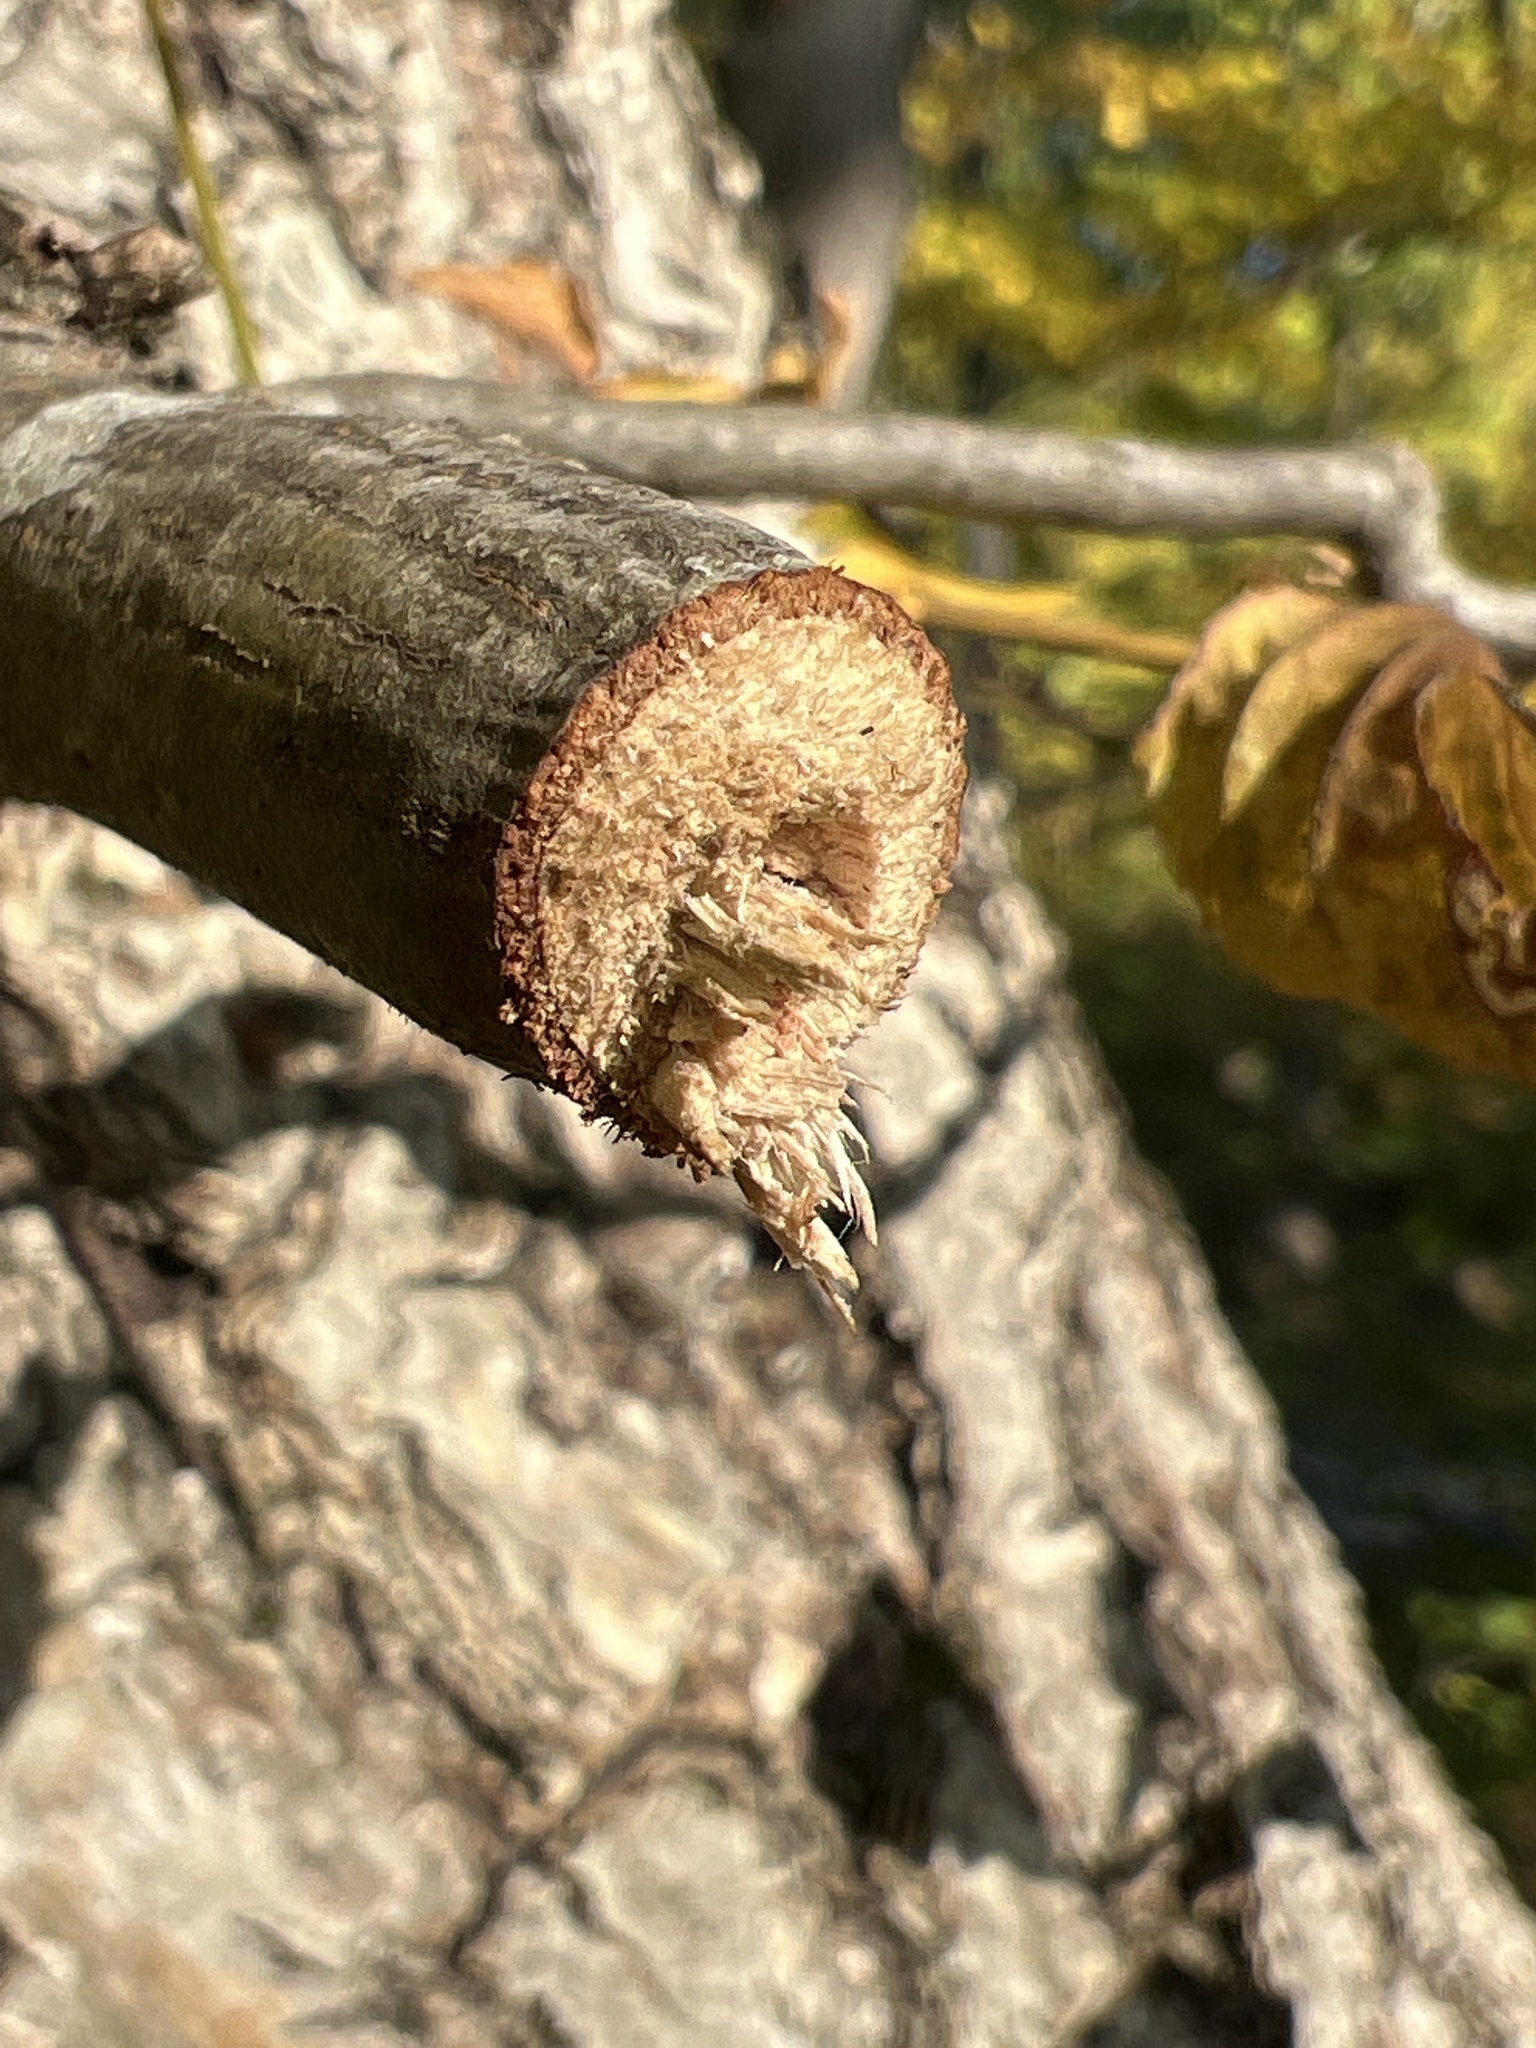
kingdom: Animalia
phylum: Arthropoda
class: Insecta
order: Coleoptera
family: Cerambycidae
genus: Oncideres
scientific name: Oncideres cingulata
